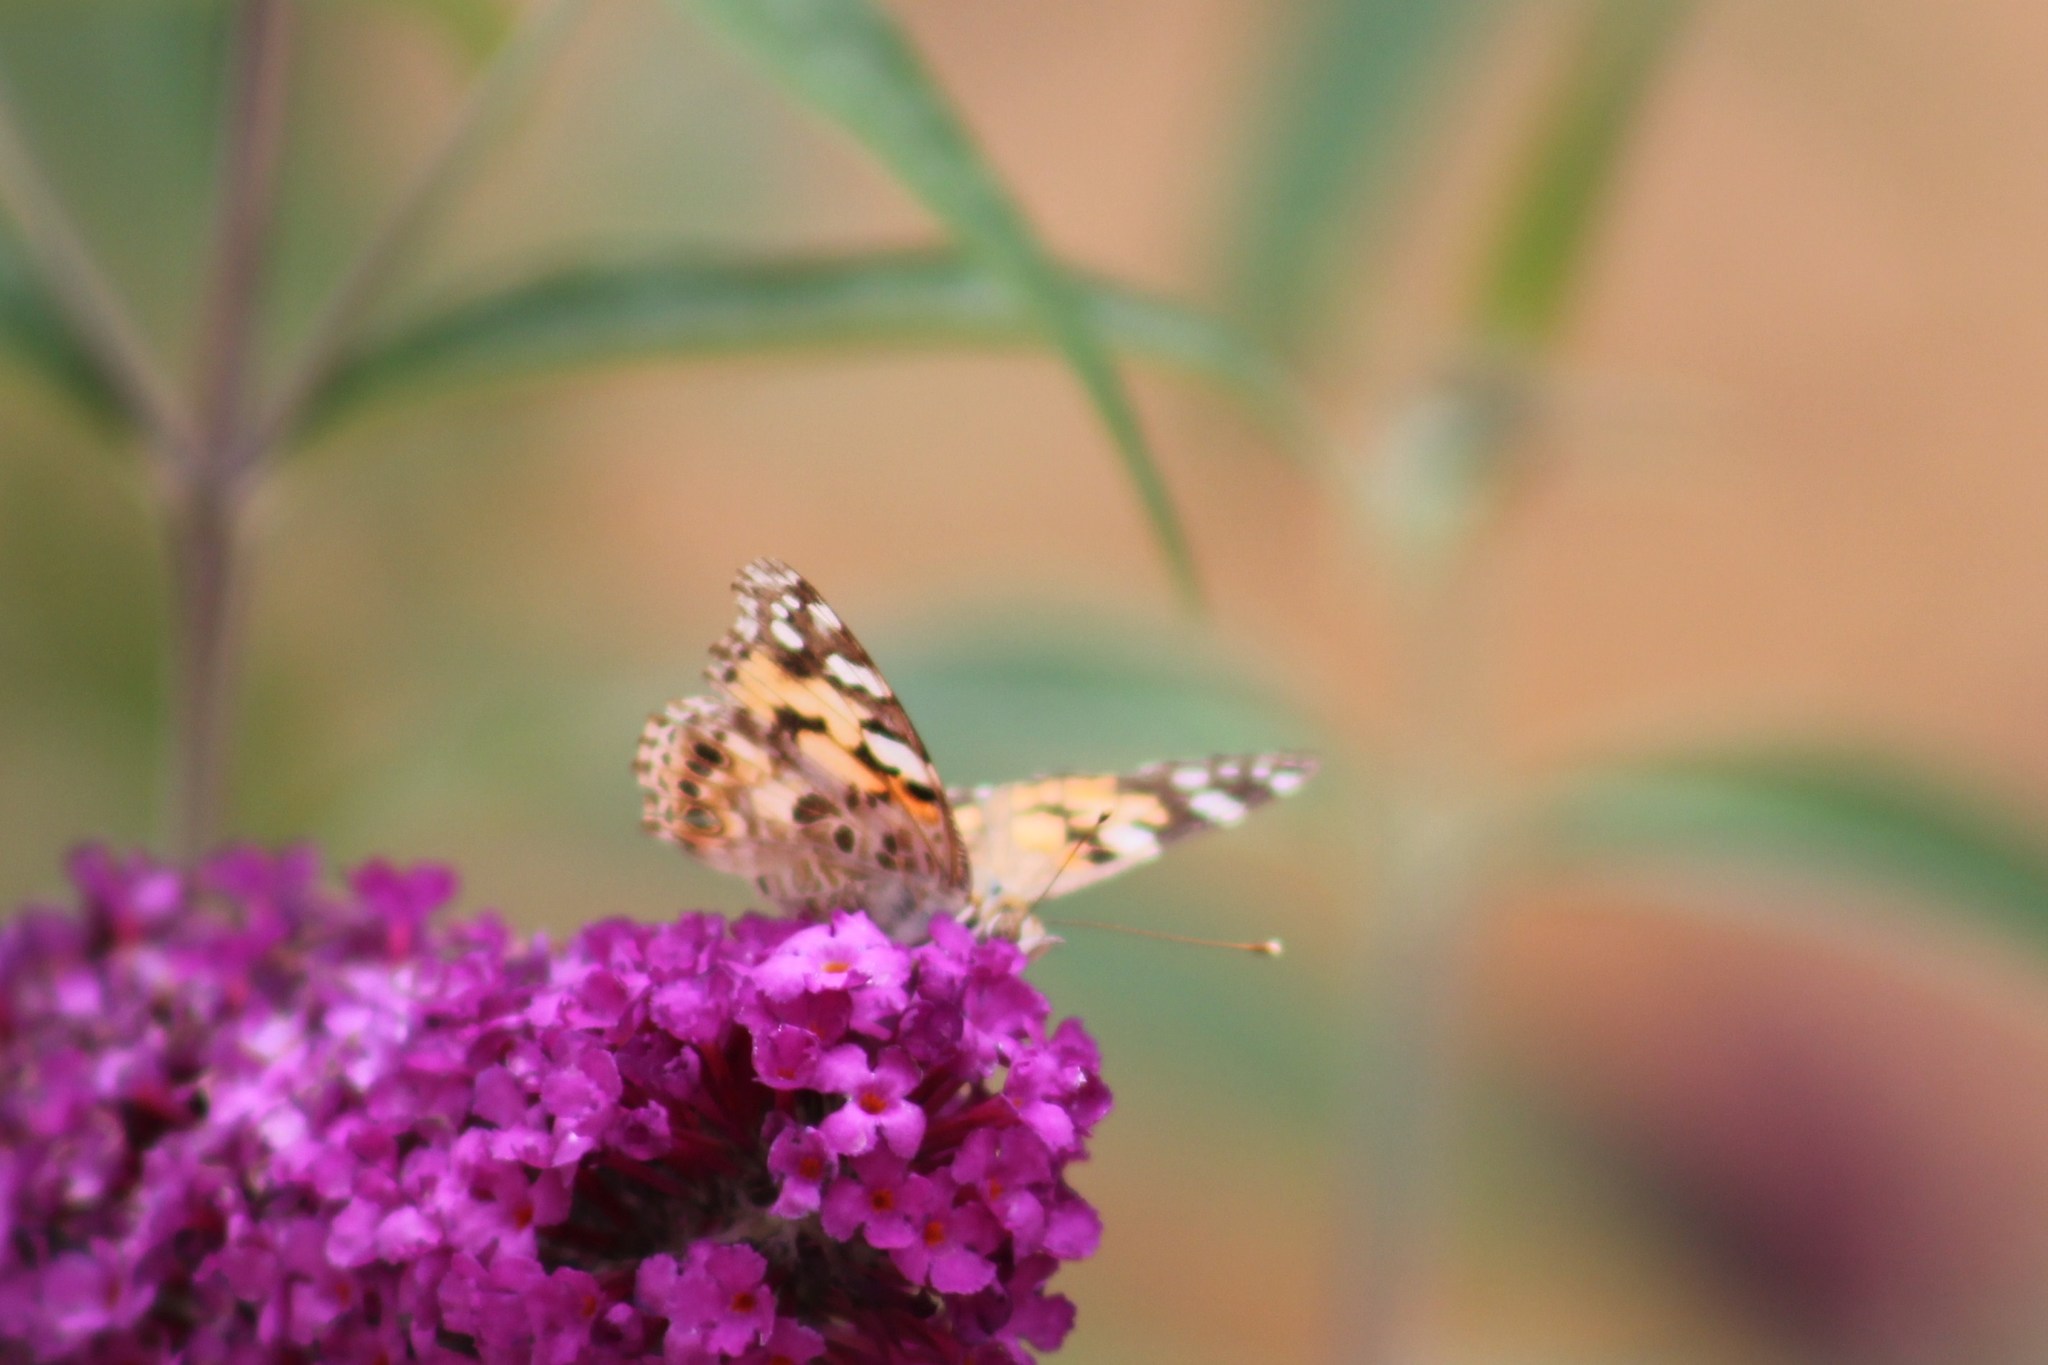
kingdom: Animalia
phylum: Arthropoda
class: Insecta
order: Lepidoptera
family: Nymphalidae
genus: Vanessa
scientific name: Vanessa cardui
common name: Painted lady
